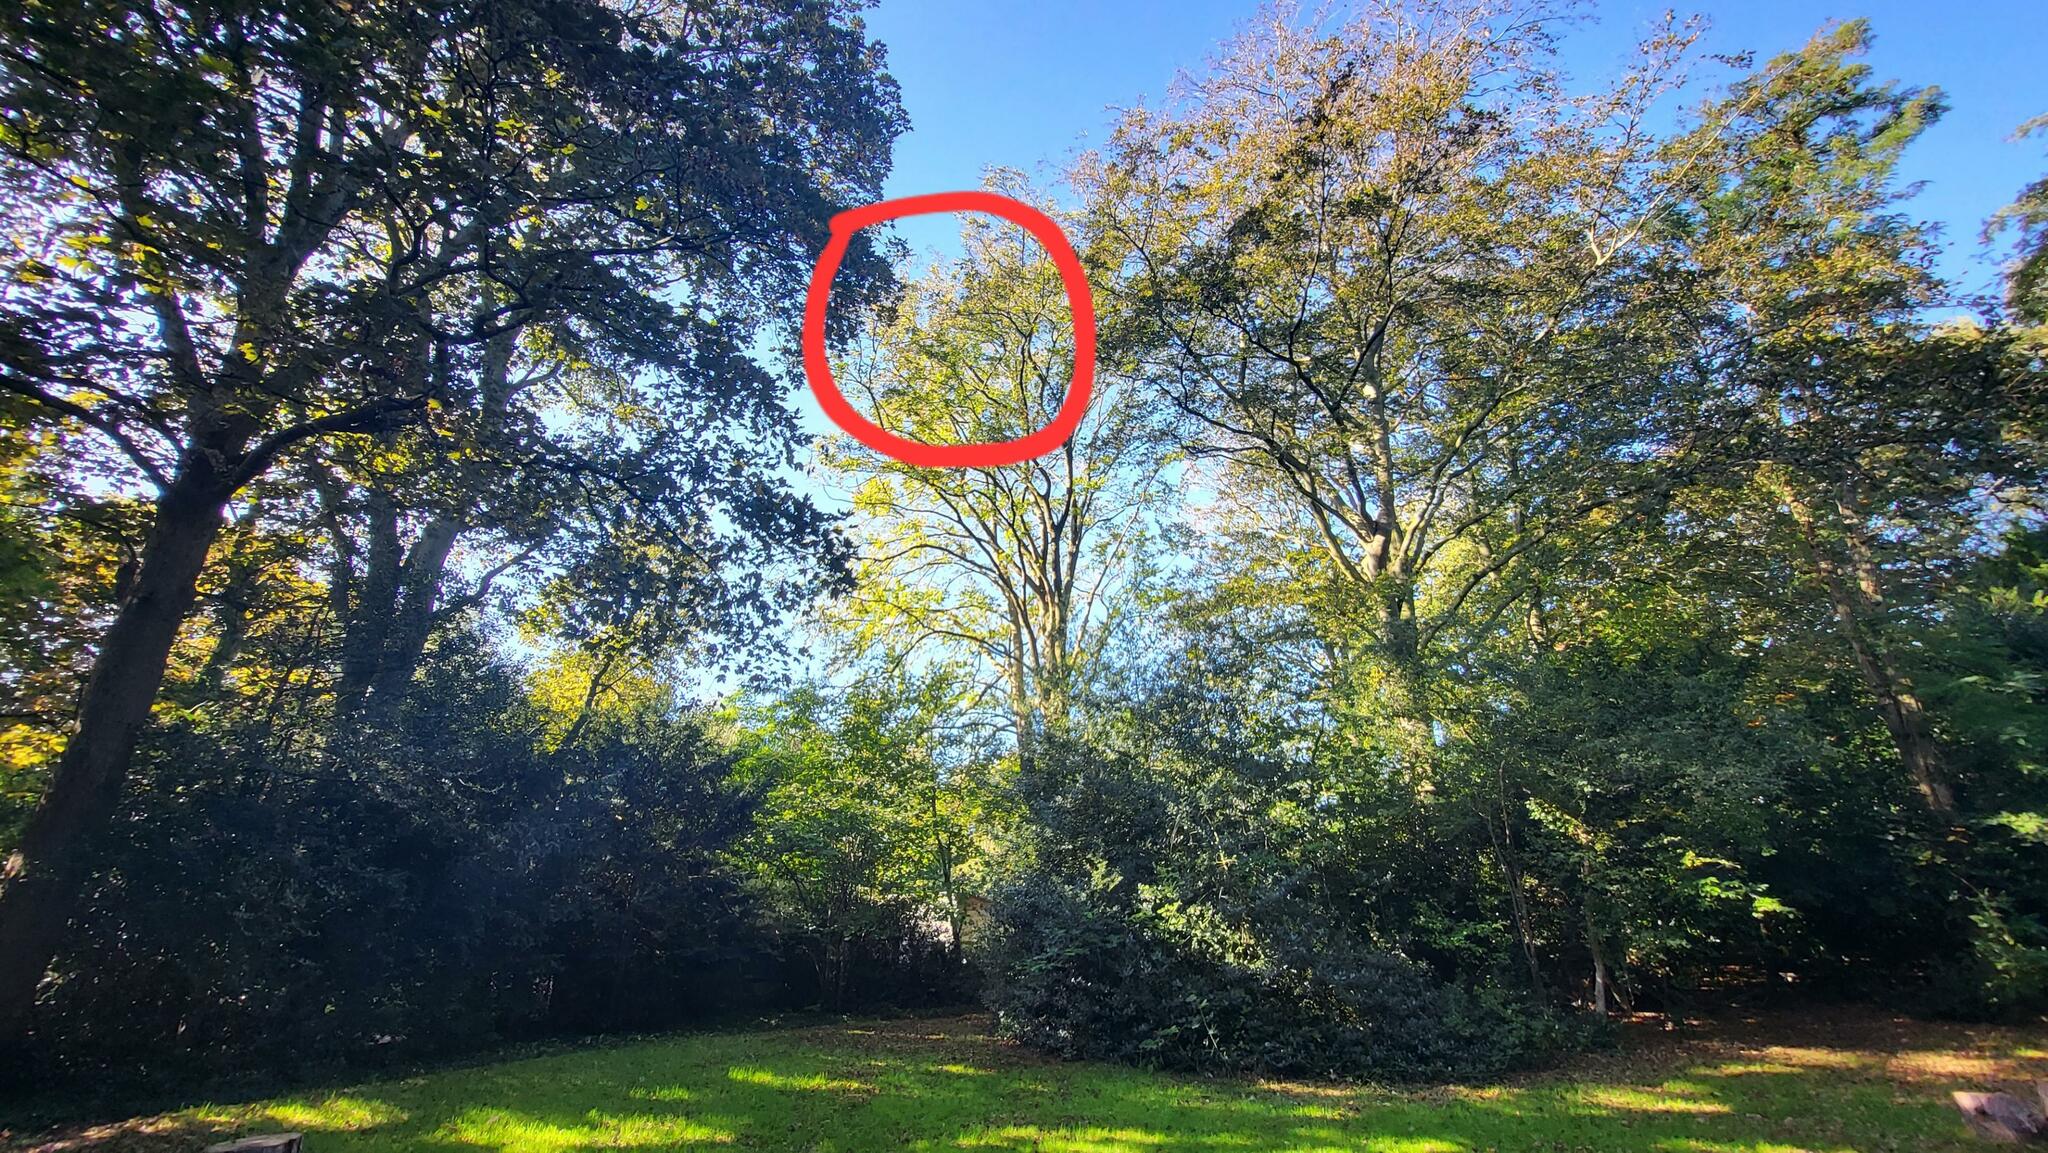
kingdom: Animalia
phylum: Arthropoda
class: Insecta
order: Hymenoptera
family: Vespidae
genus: Vespa
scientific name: Vespa velutina
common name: Asian hornet
